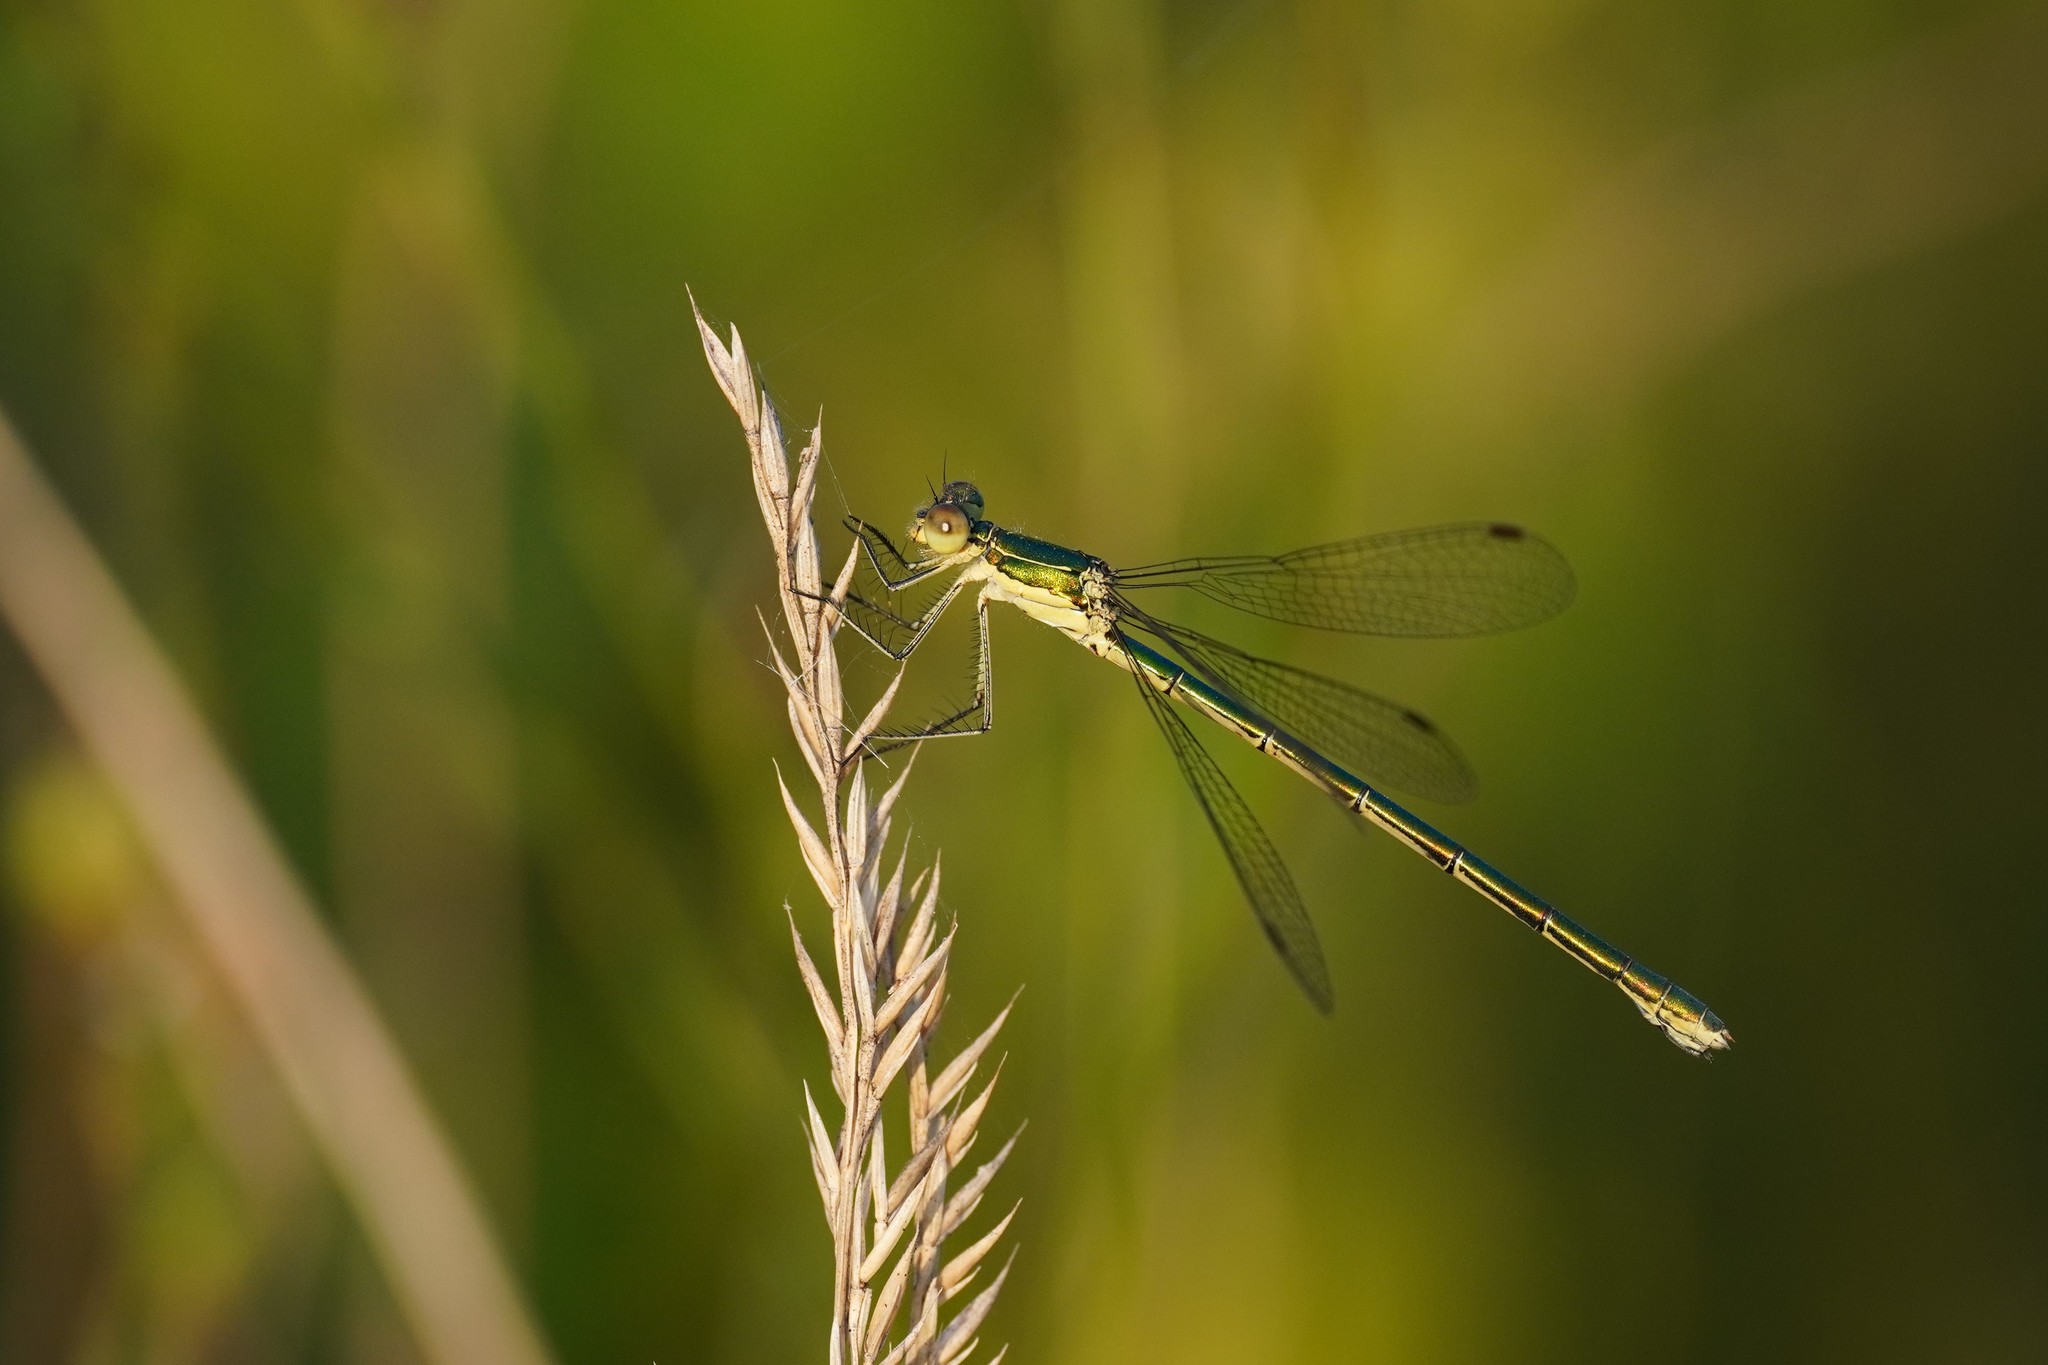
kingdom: Animalia
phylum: Arthropoda
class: Insecta
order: Odonata
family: Lestidae
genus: Lestes
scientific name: Lestes virens
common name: Small emerald spreadwing
